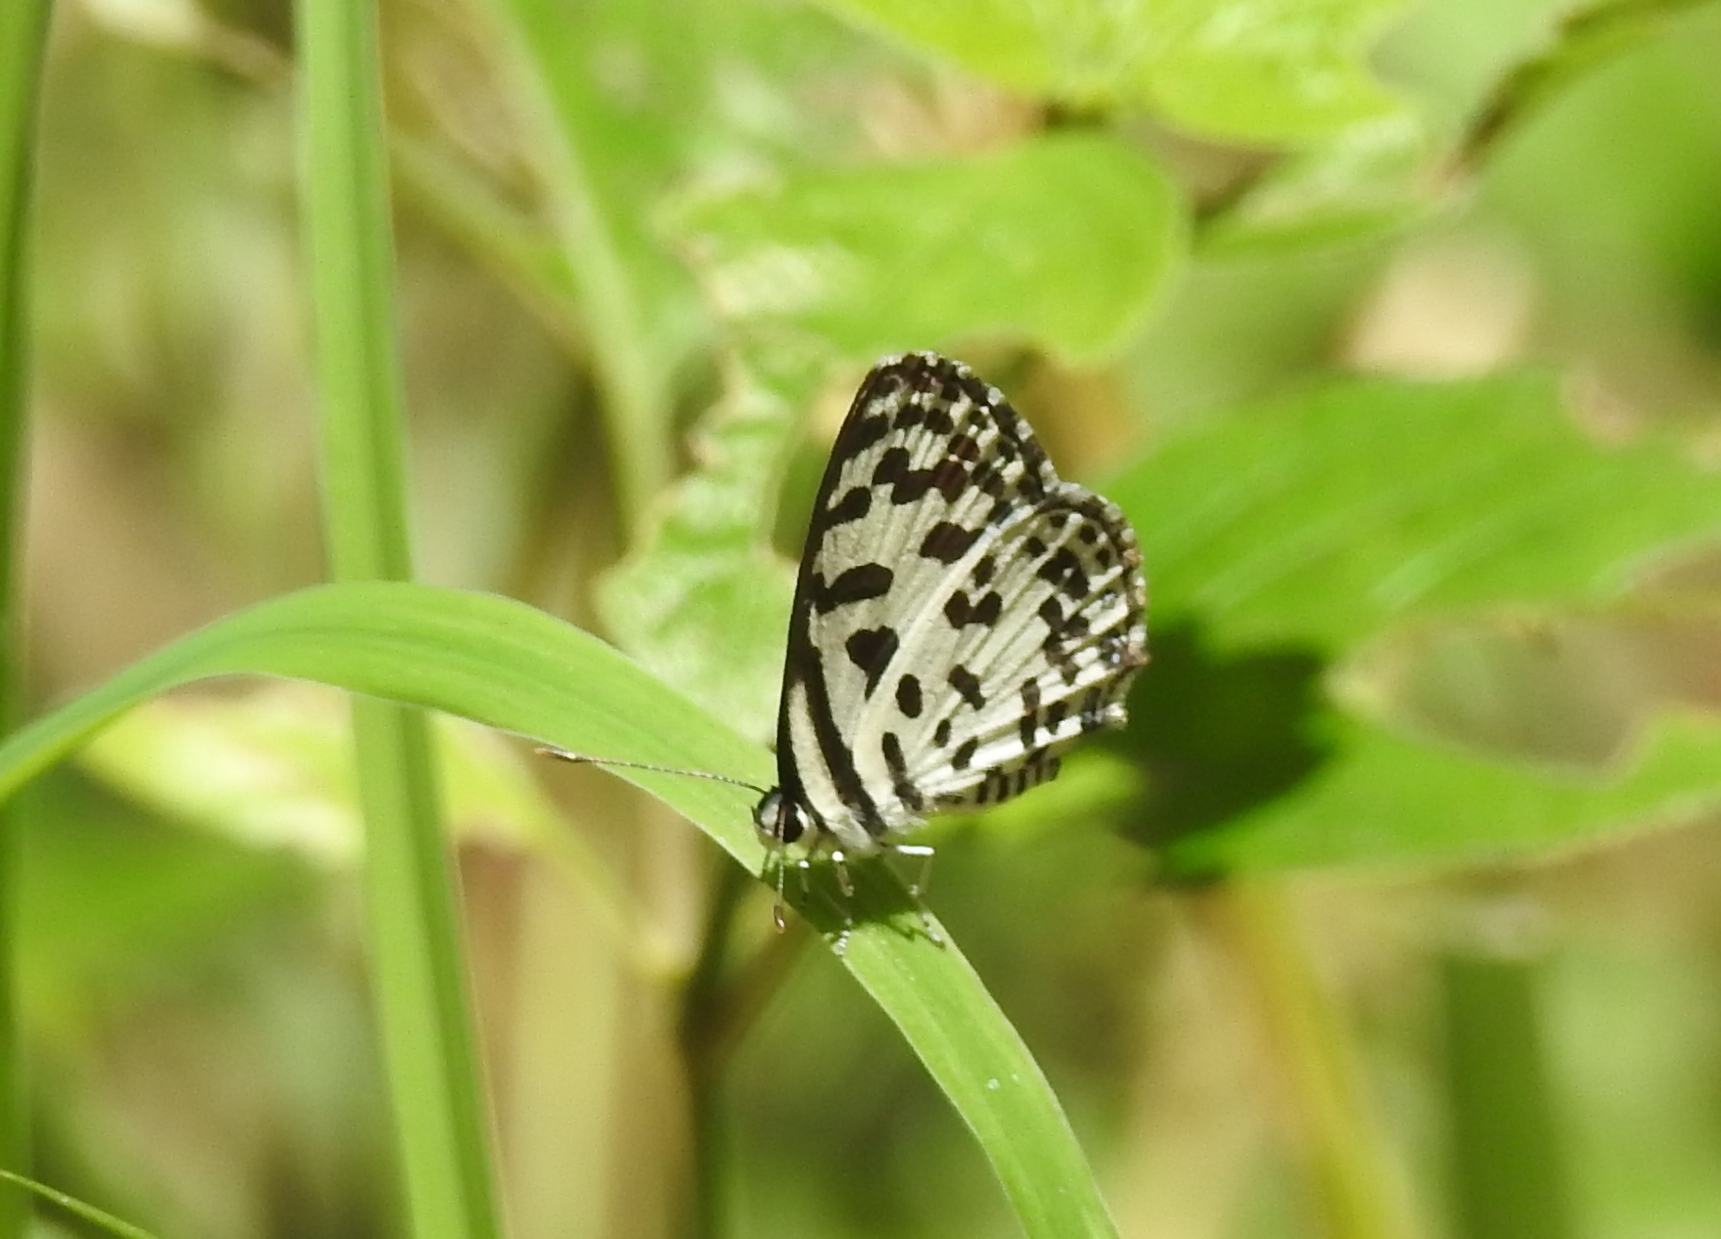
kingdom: Animalia
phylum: Arthropoda
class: Insecta
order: Lepidoptera
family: Lycaenidae
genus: Castalius
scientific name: Castalius rosimon
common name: Common pierrot
